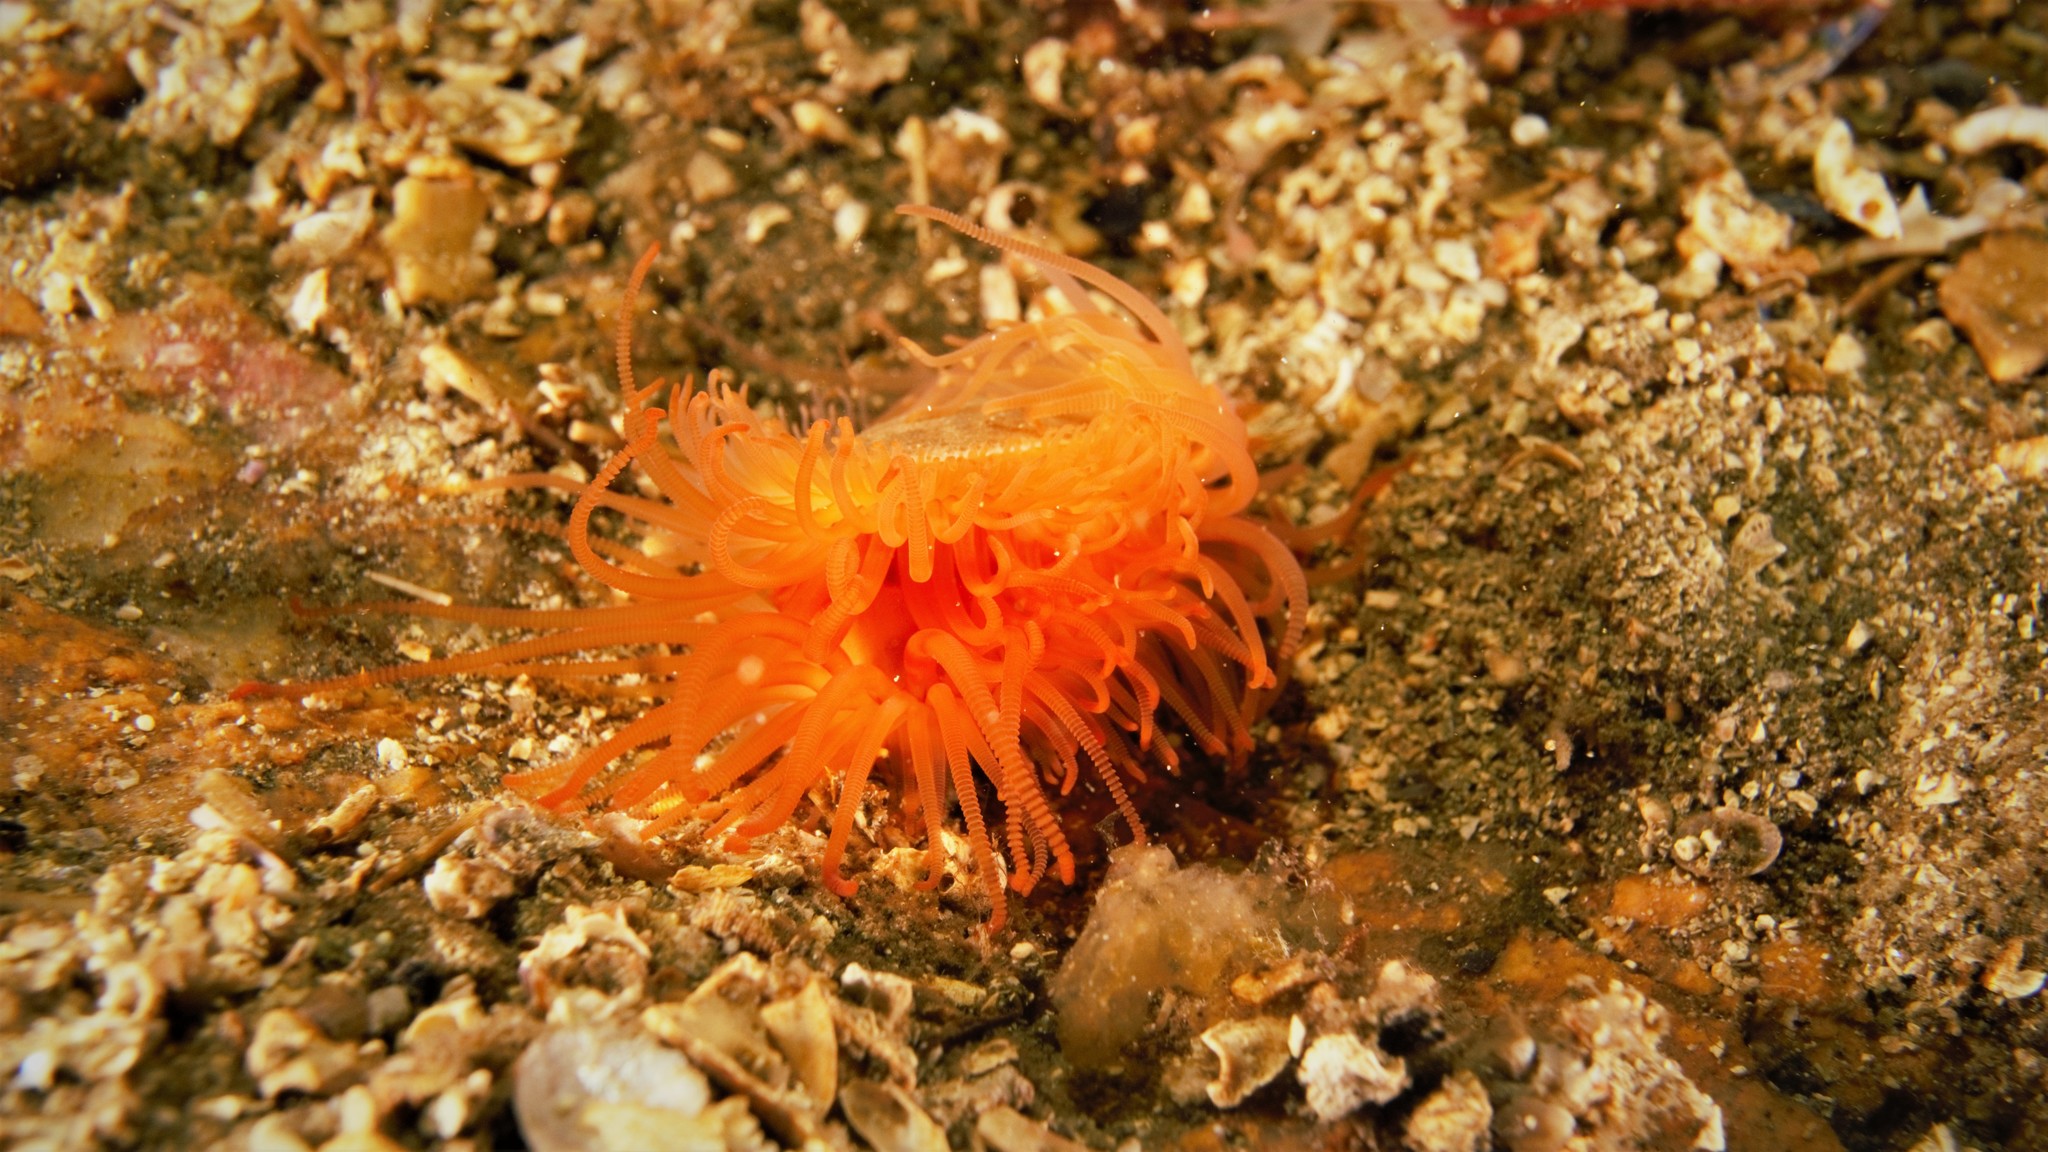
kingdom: Animalia
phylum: Mollusca
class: Bivalvia
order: Limida
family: Limidae
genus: Limaria
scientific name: Limaria hians
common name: Gaping file shale
